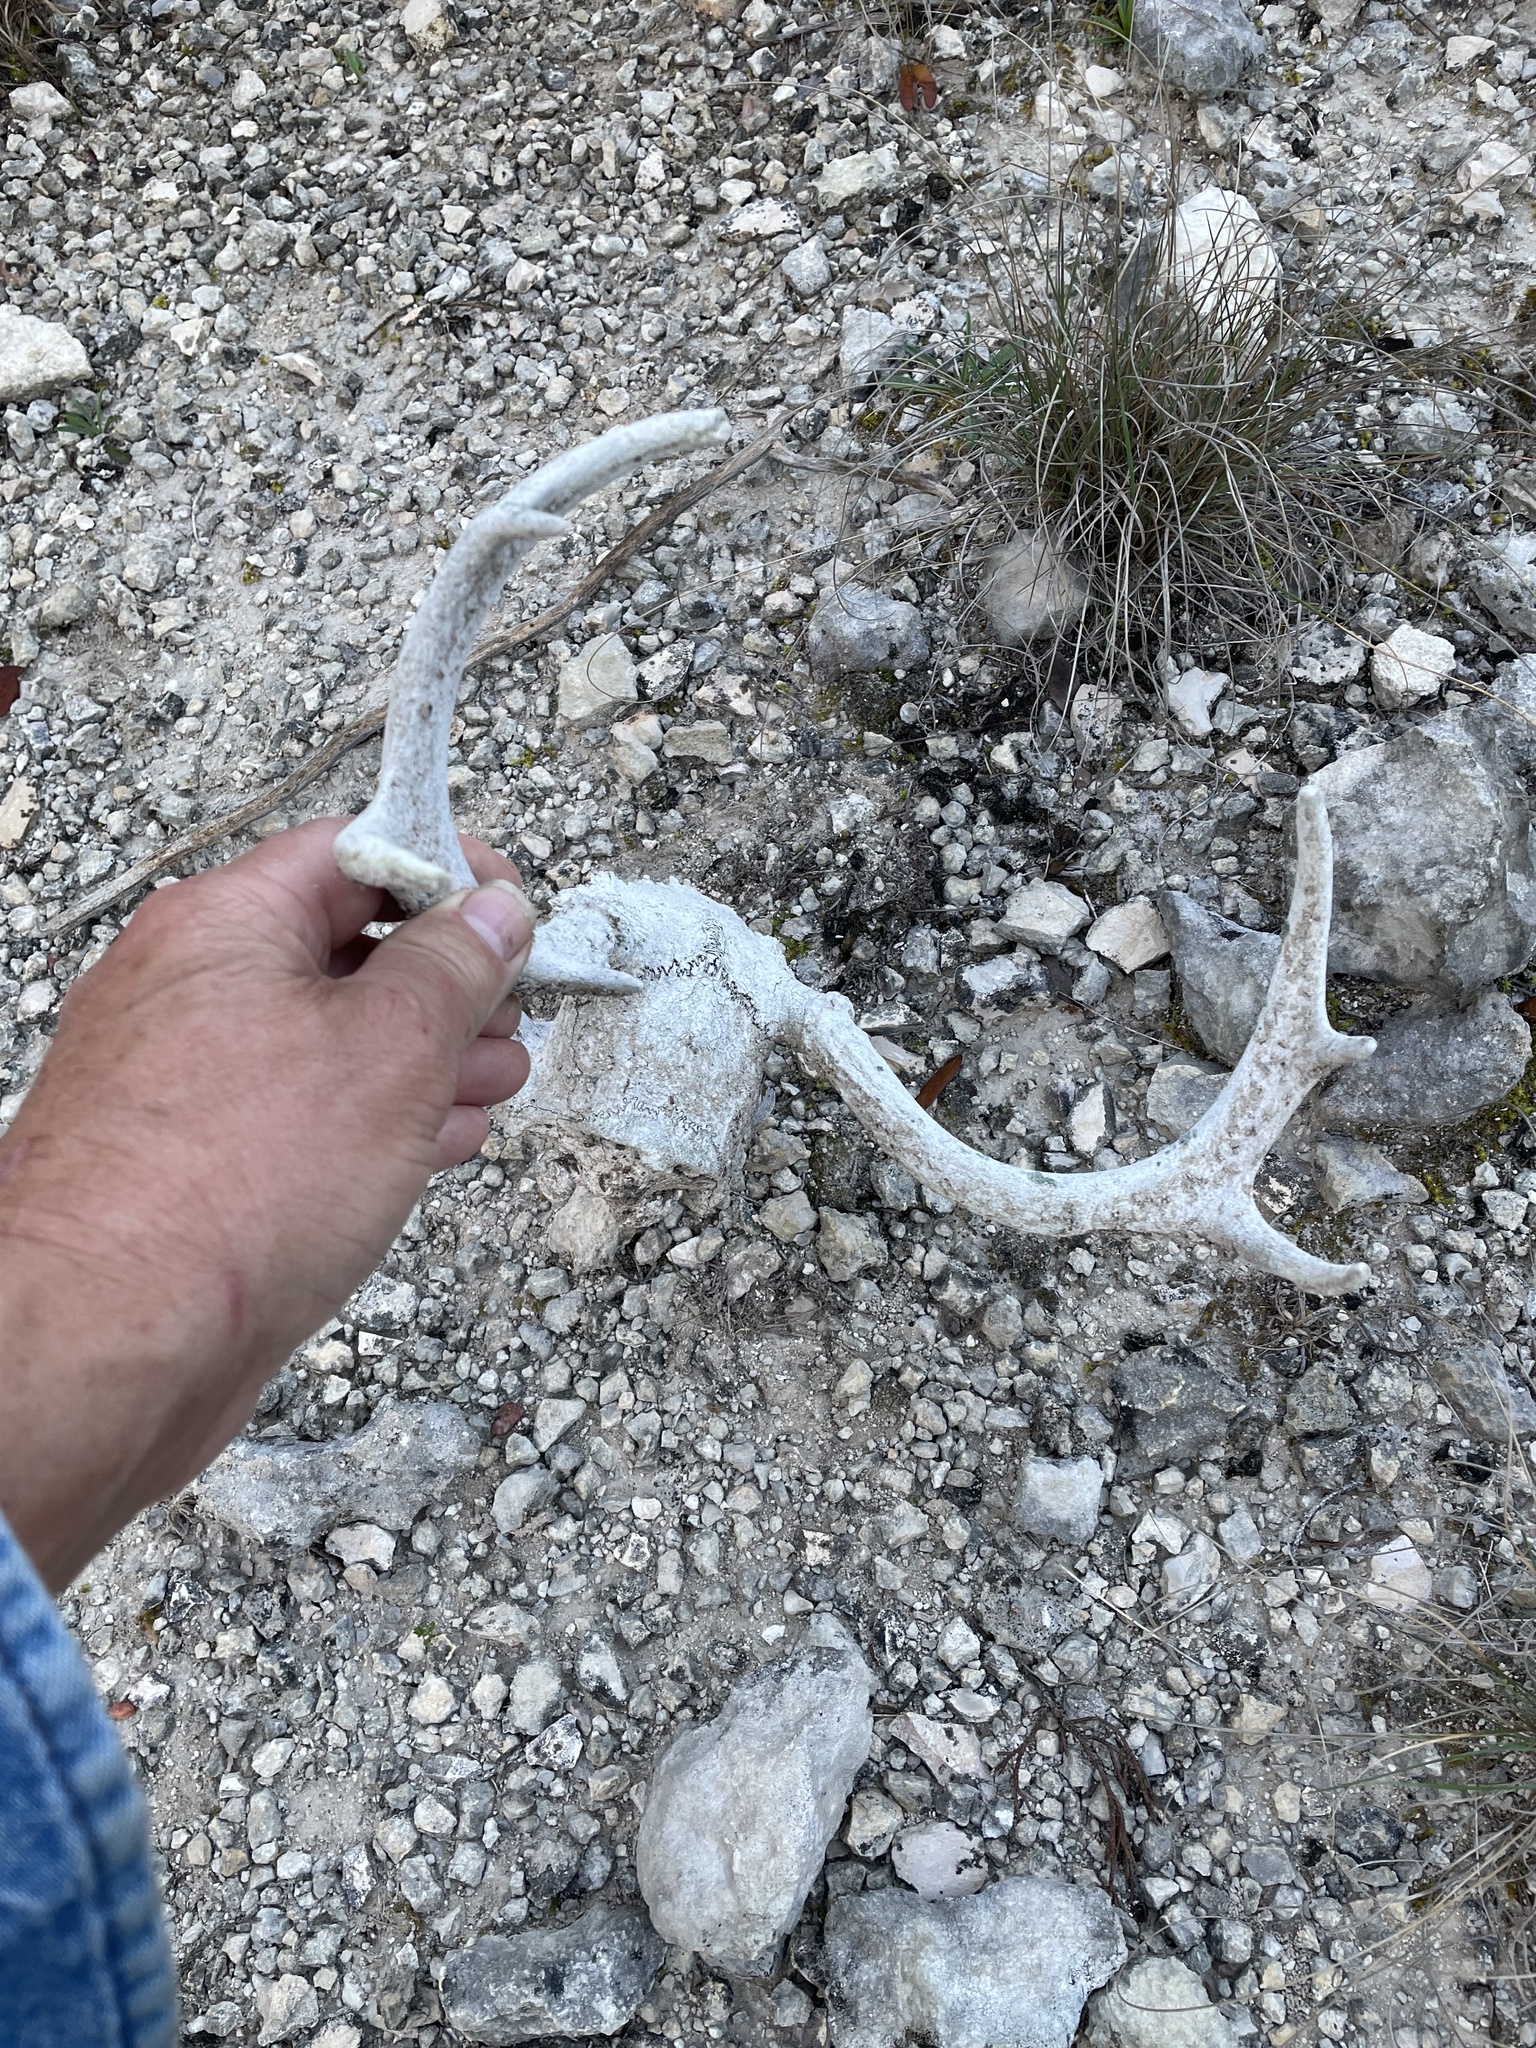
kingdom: Animalia
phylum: Chordata
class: Mammalia
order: Artiodactyla
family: Cervidae
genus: Odocoileus
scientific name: Odocoileus virginianus
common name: White-tailed deer
